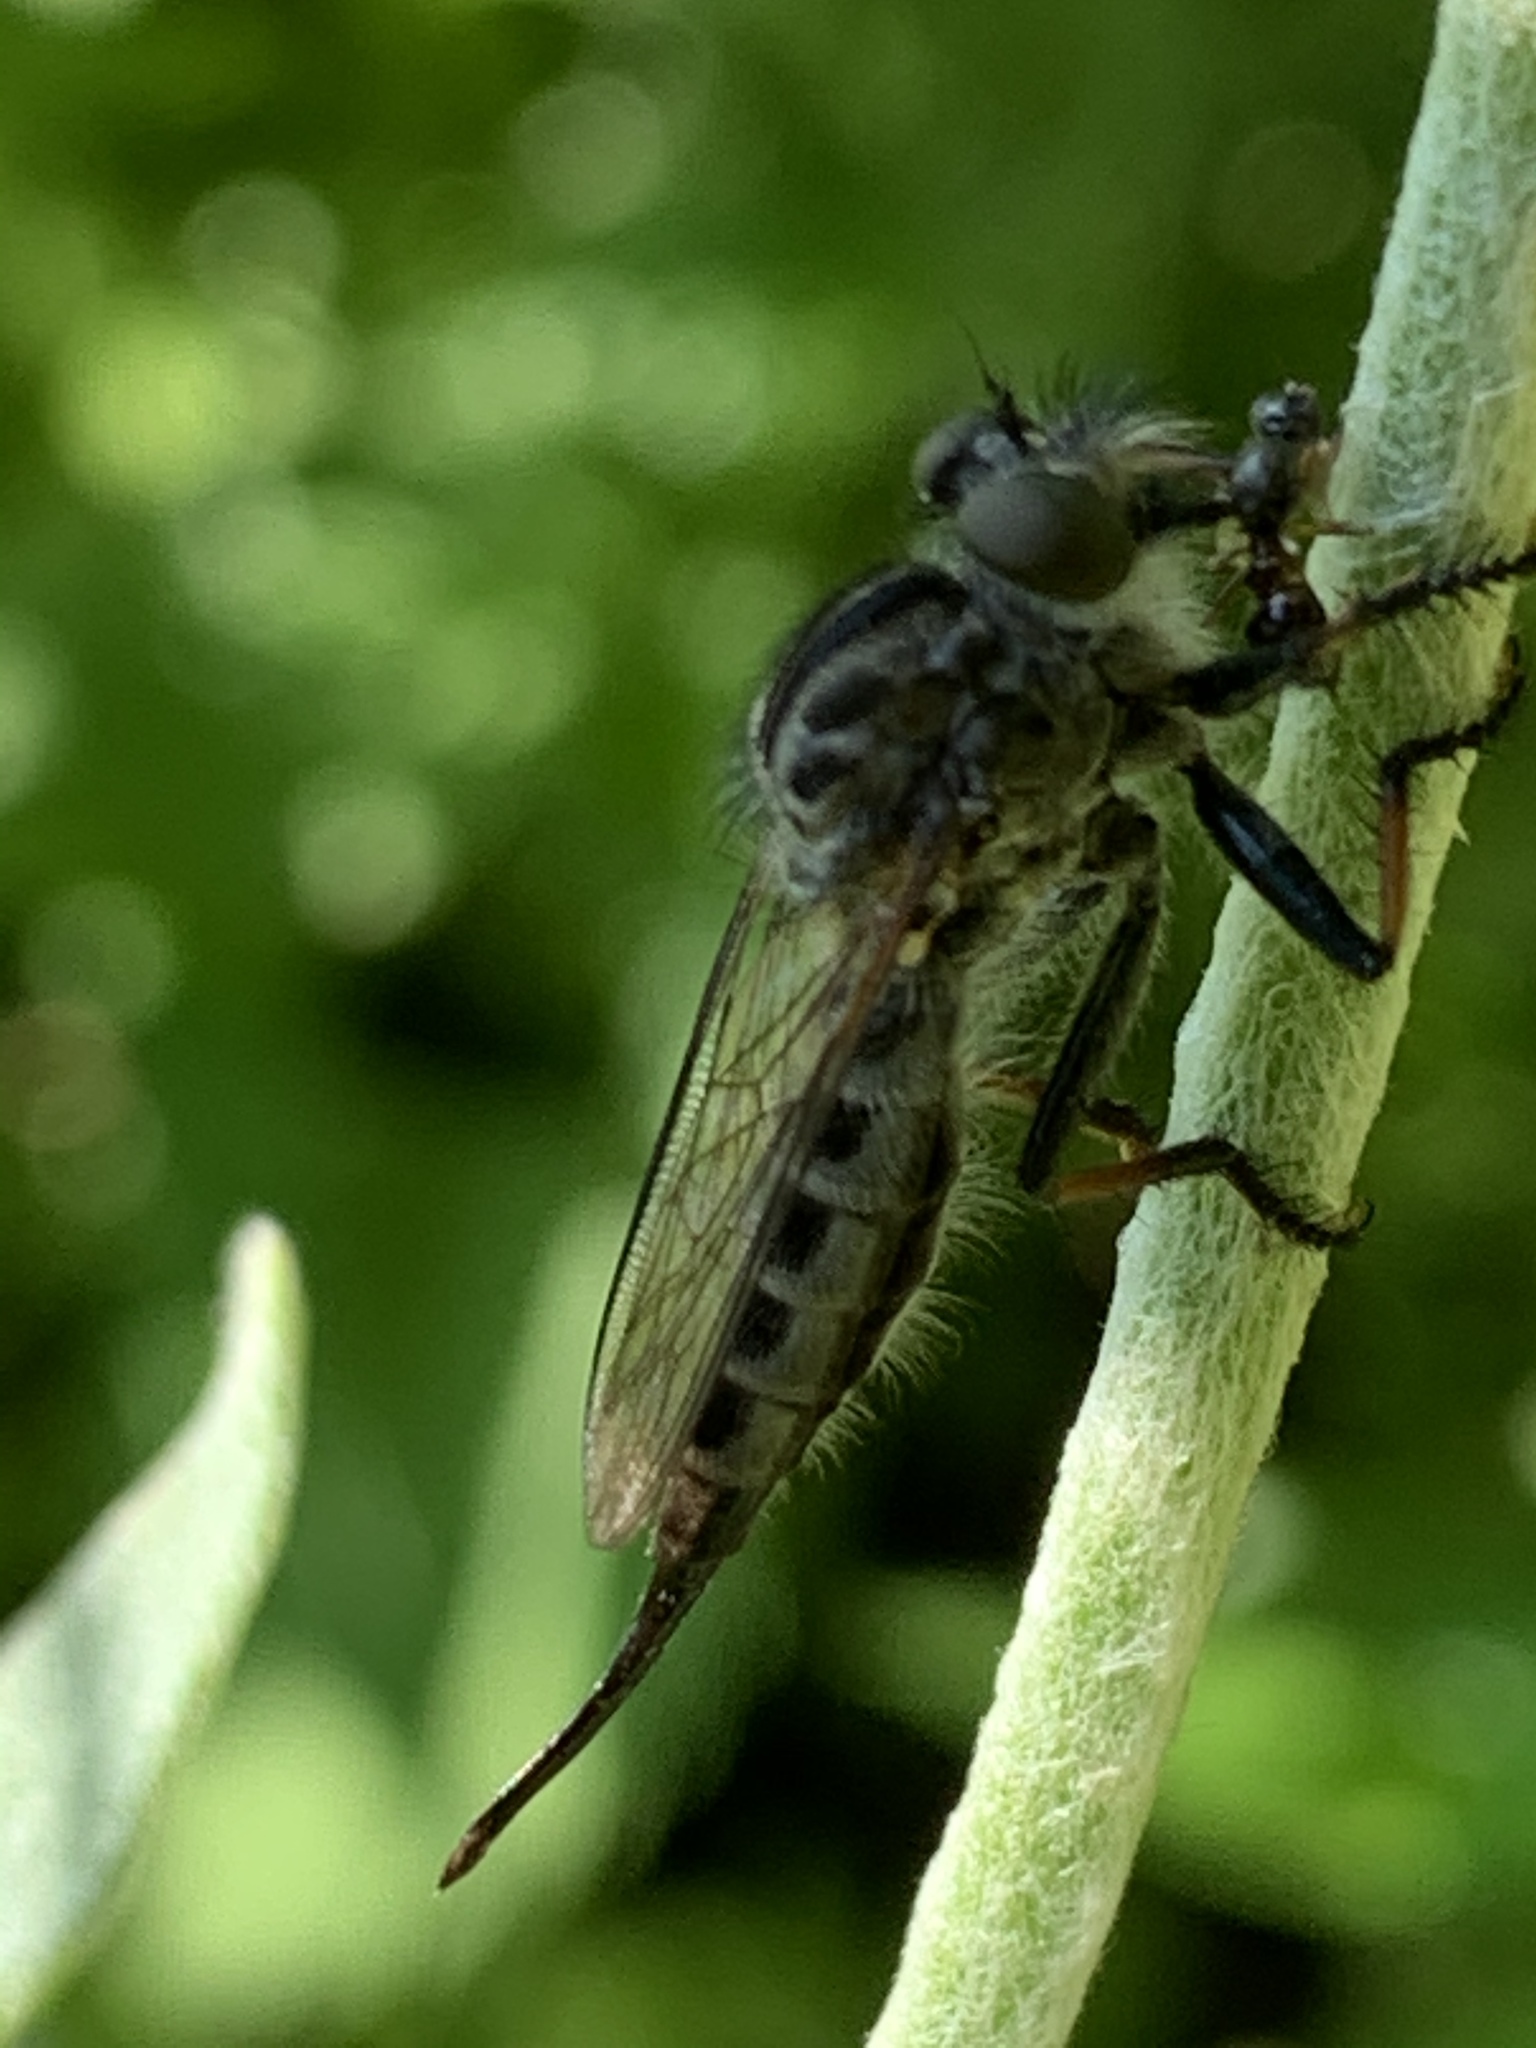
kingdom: Animalia
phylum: Arthropoda
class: Insecta
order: Diptera
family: Asilidae
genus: Efferia
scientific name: Efferia aestuans
